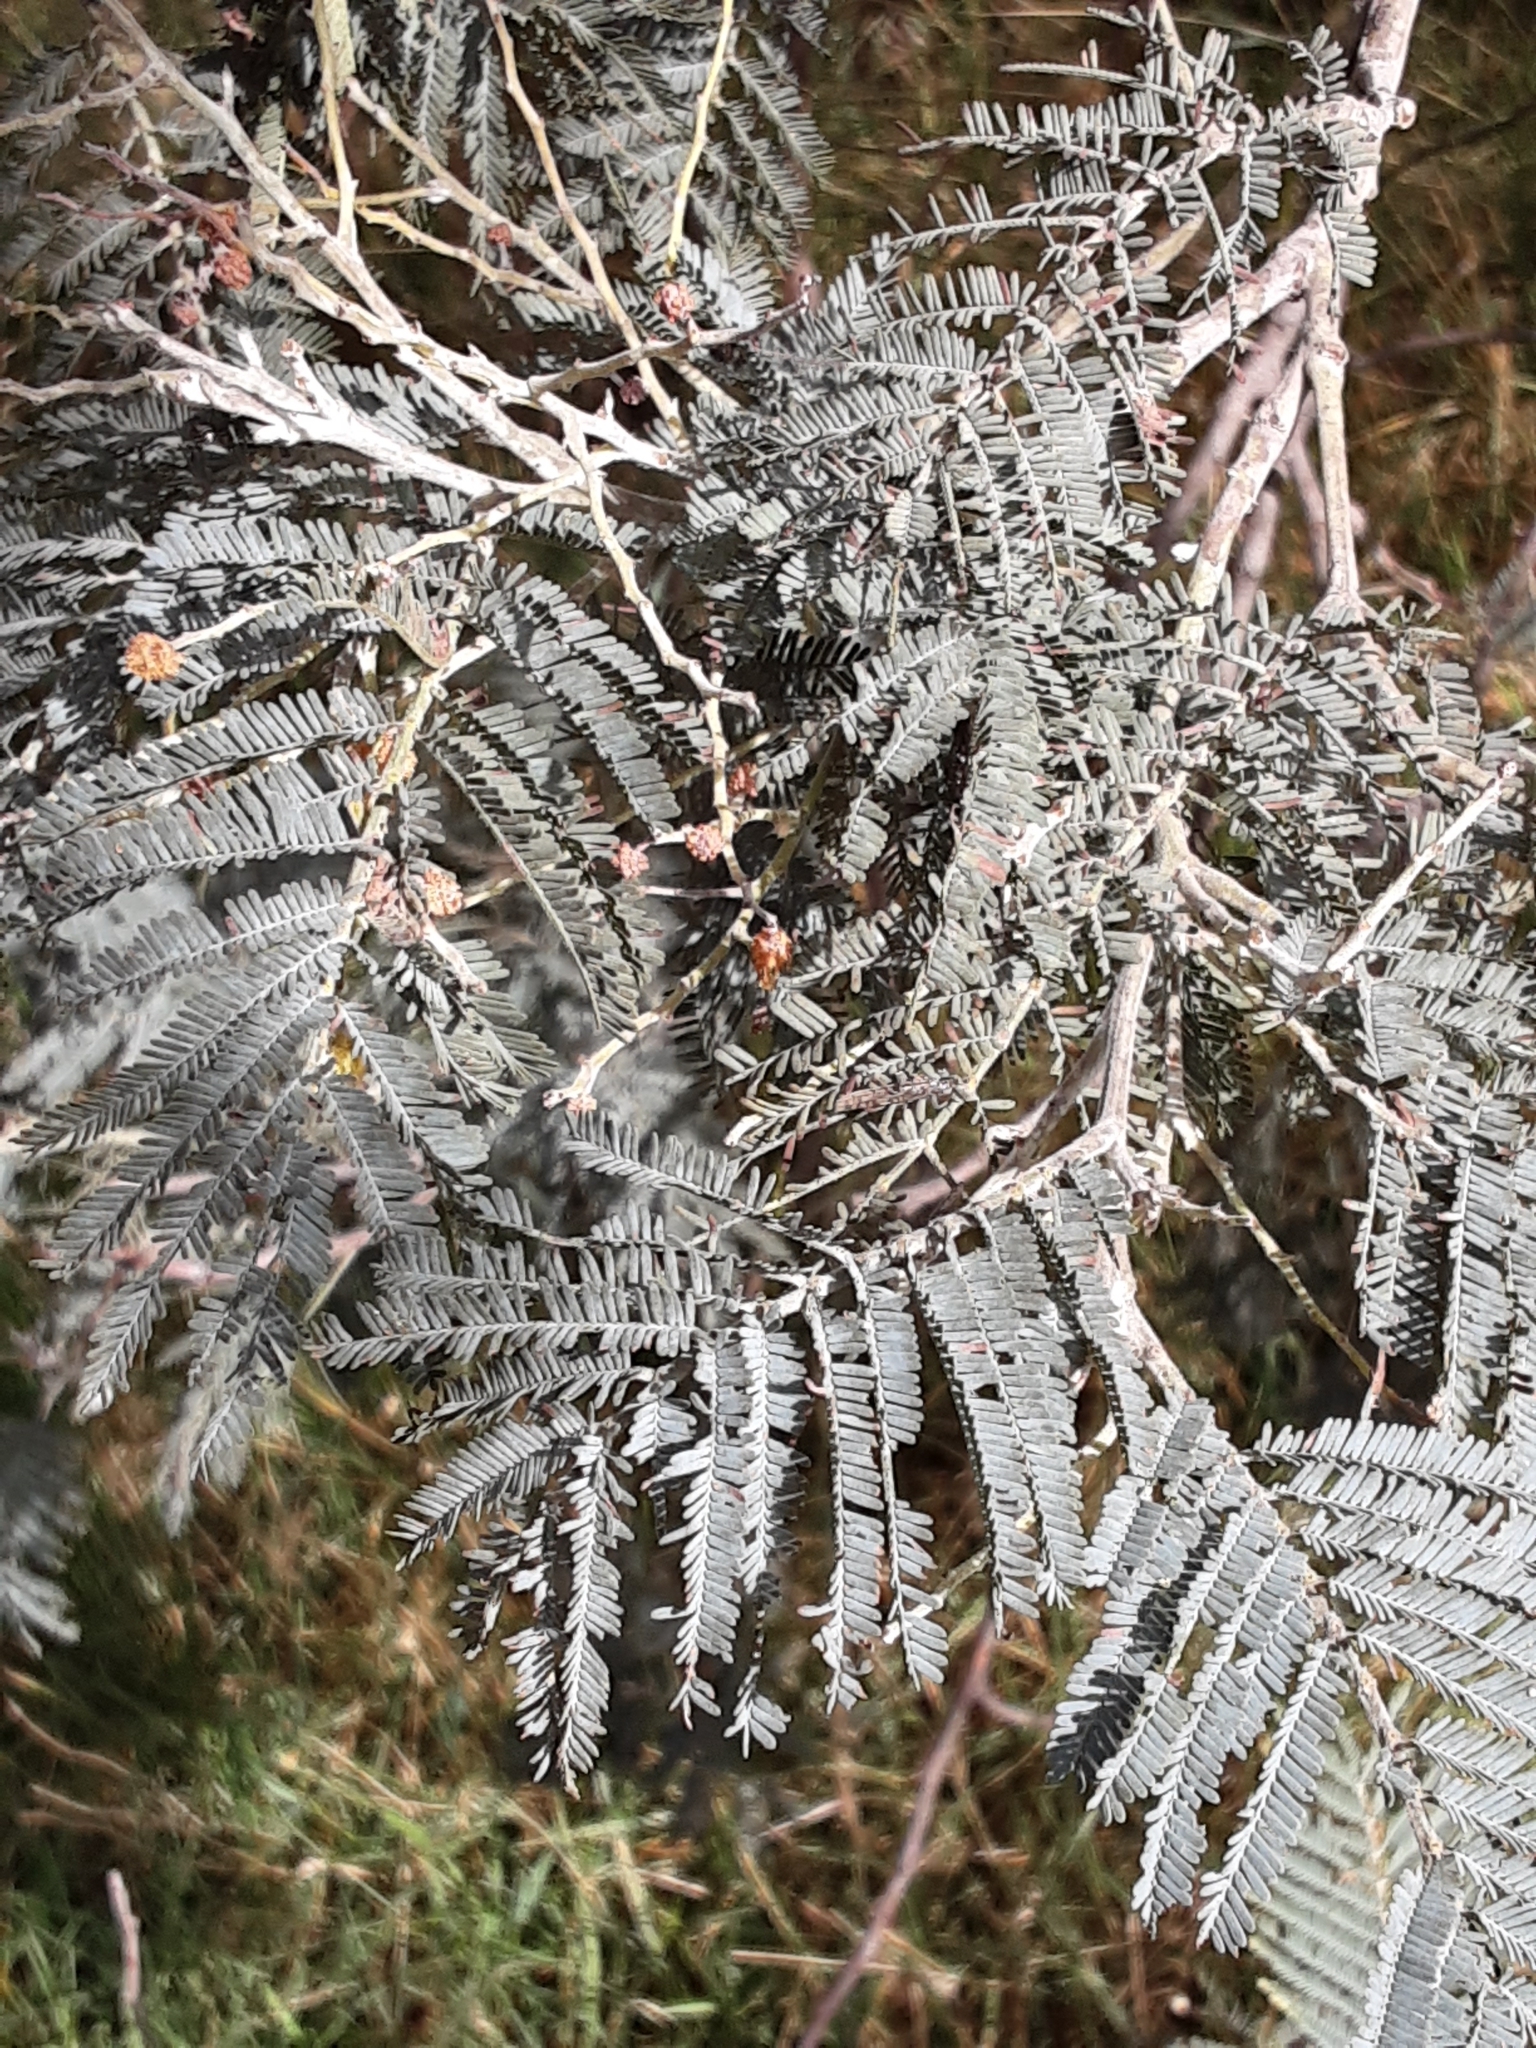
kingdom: Plantae
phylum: Tracheophyta
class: Magnoliopsida
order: Fabales
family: Fabaceae
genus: Acacia
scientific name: Acacia dealbata
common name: Silver wattle
